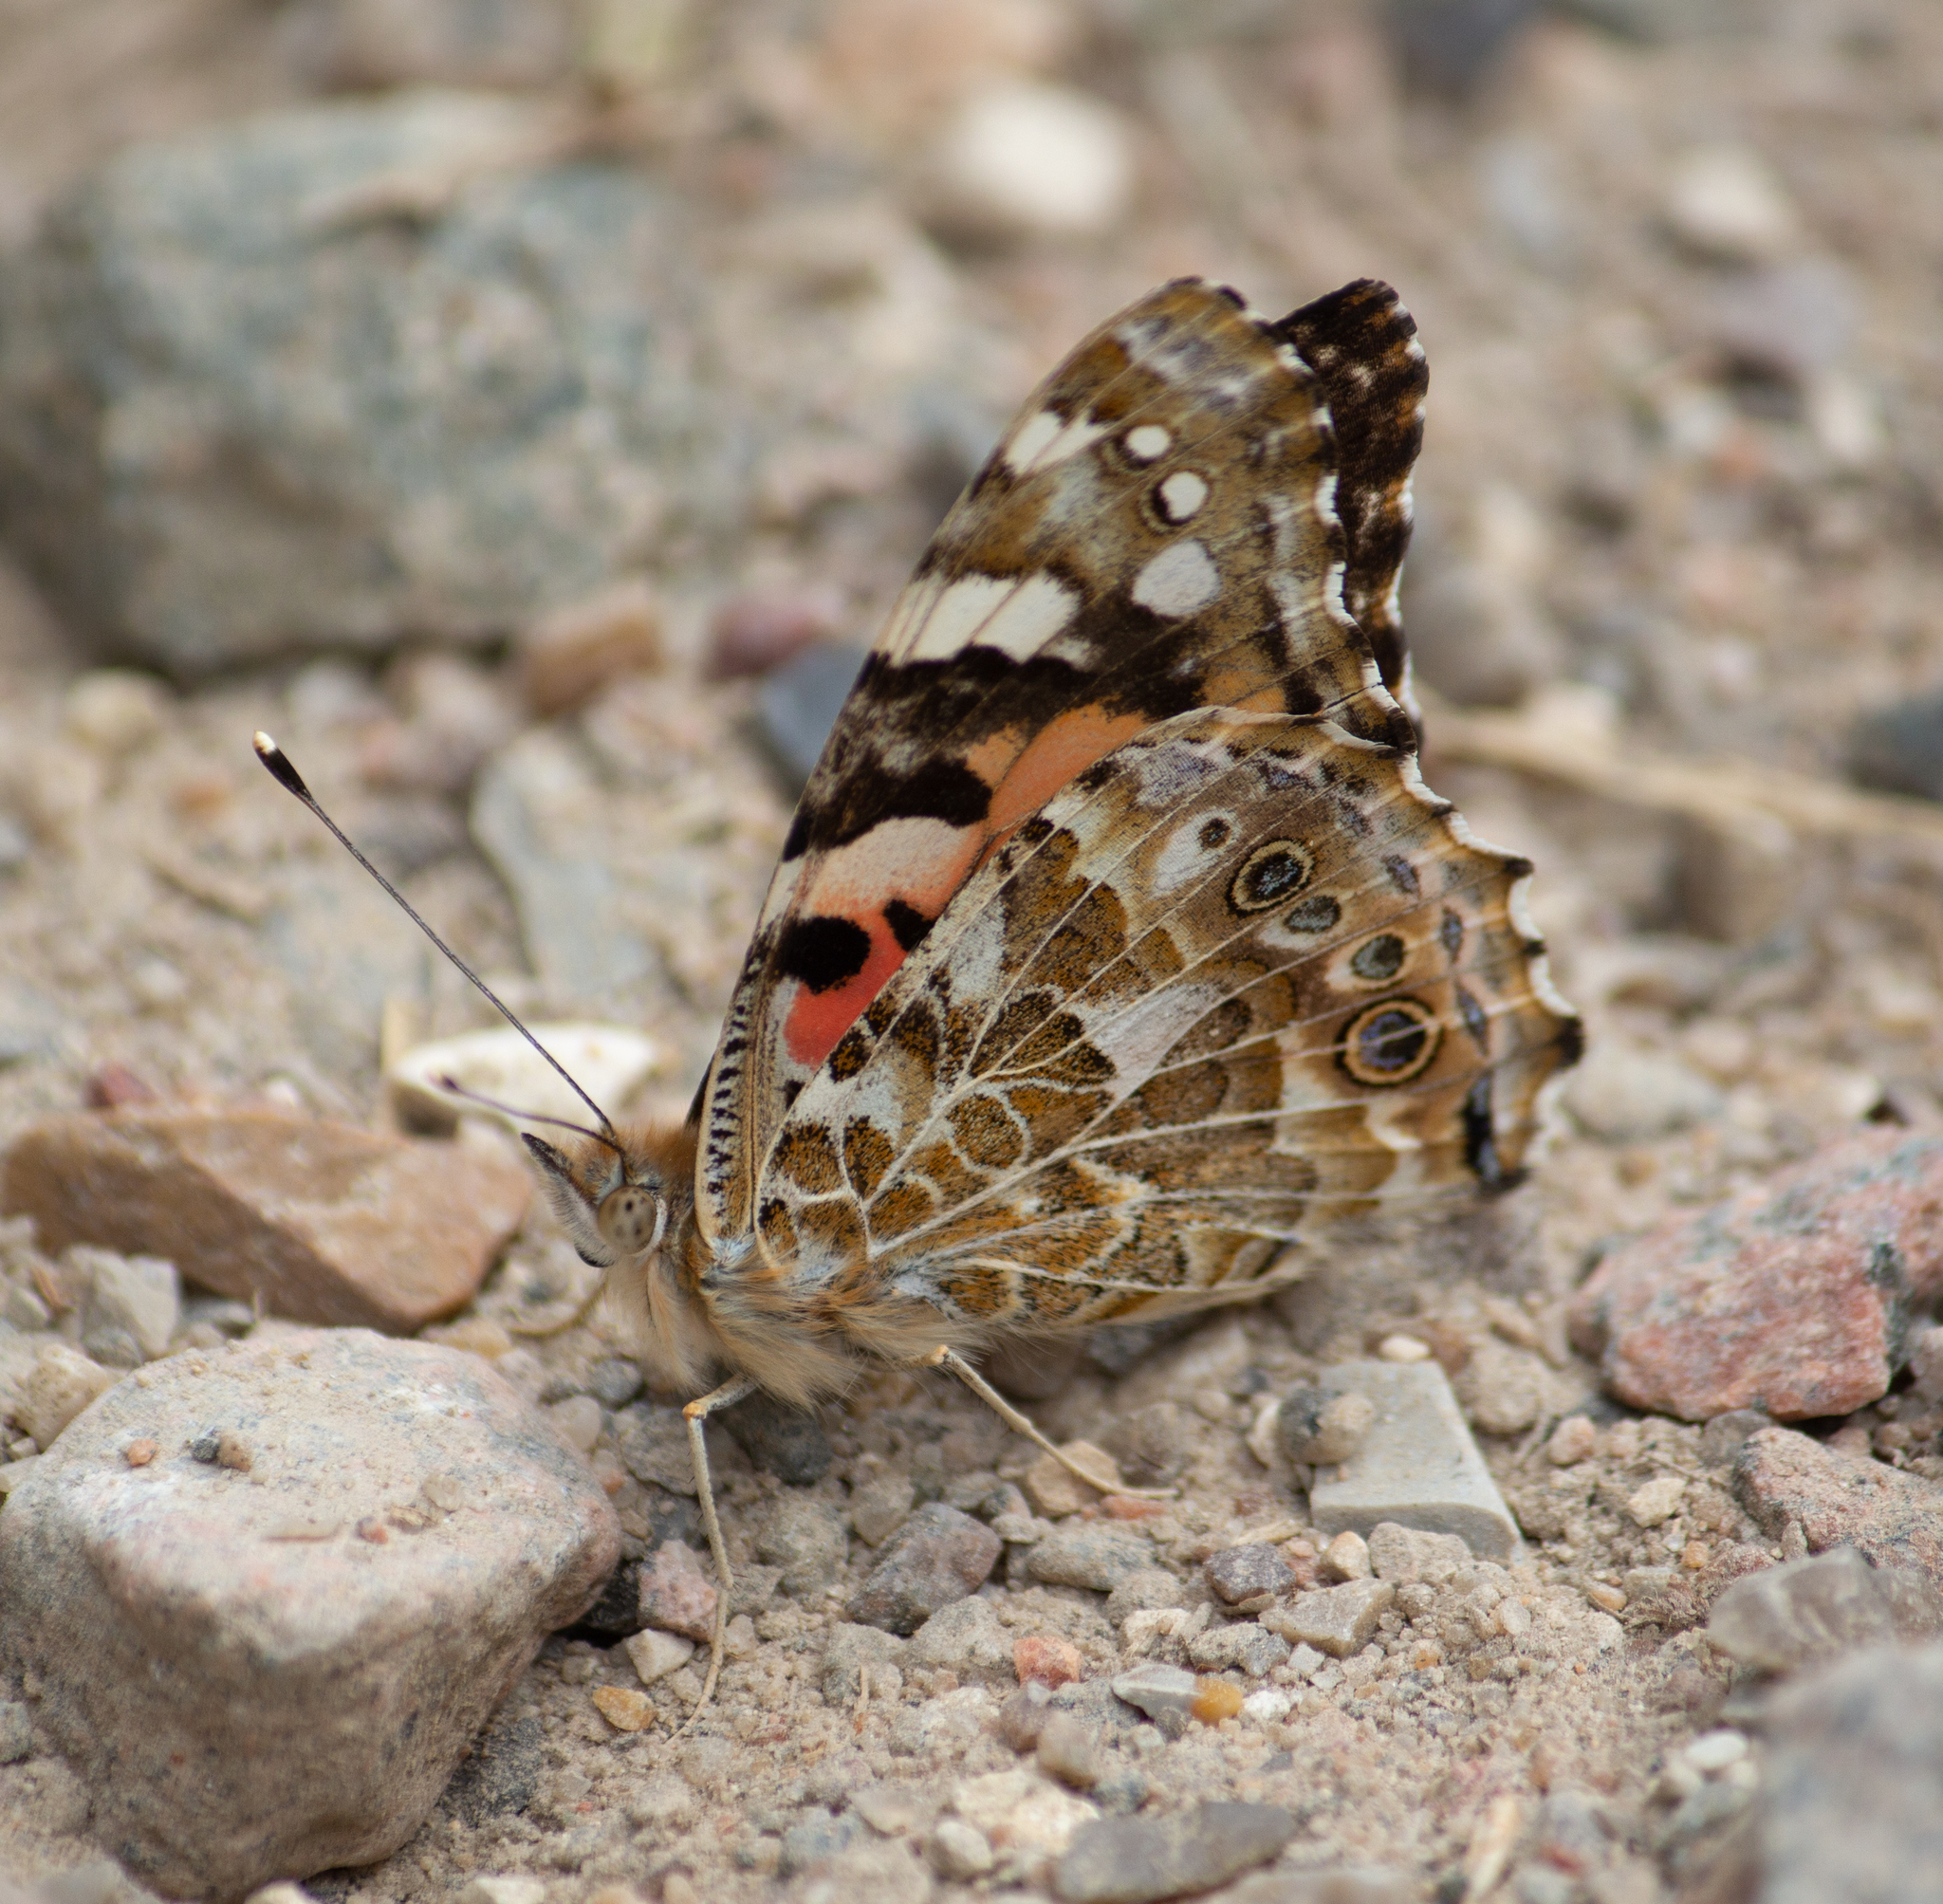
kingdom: Animalia
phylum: Arthropoda
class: Insecta
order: Lepidoptera
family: Nymphalidae
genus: Vanessa
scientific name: Vanessa cardui
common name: Painted lady
